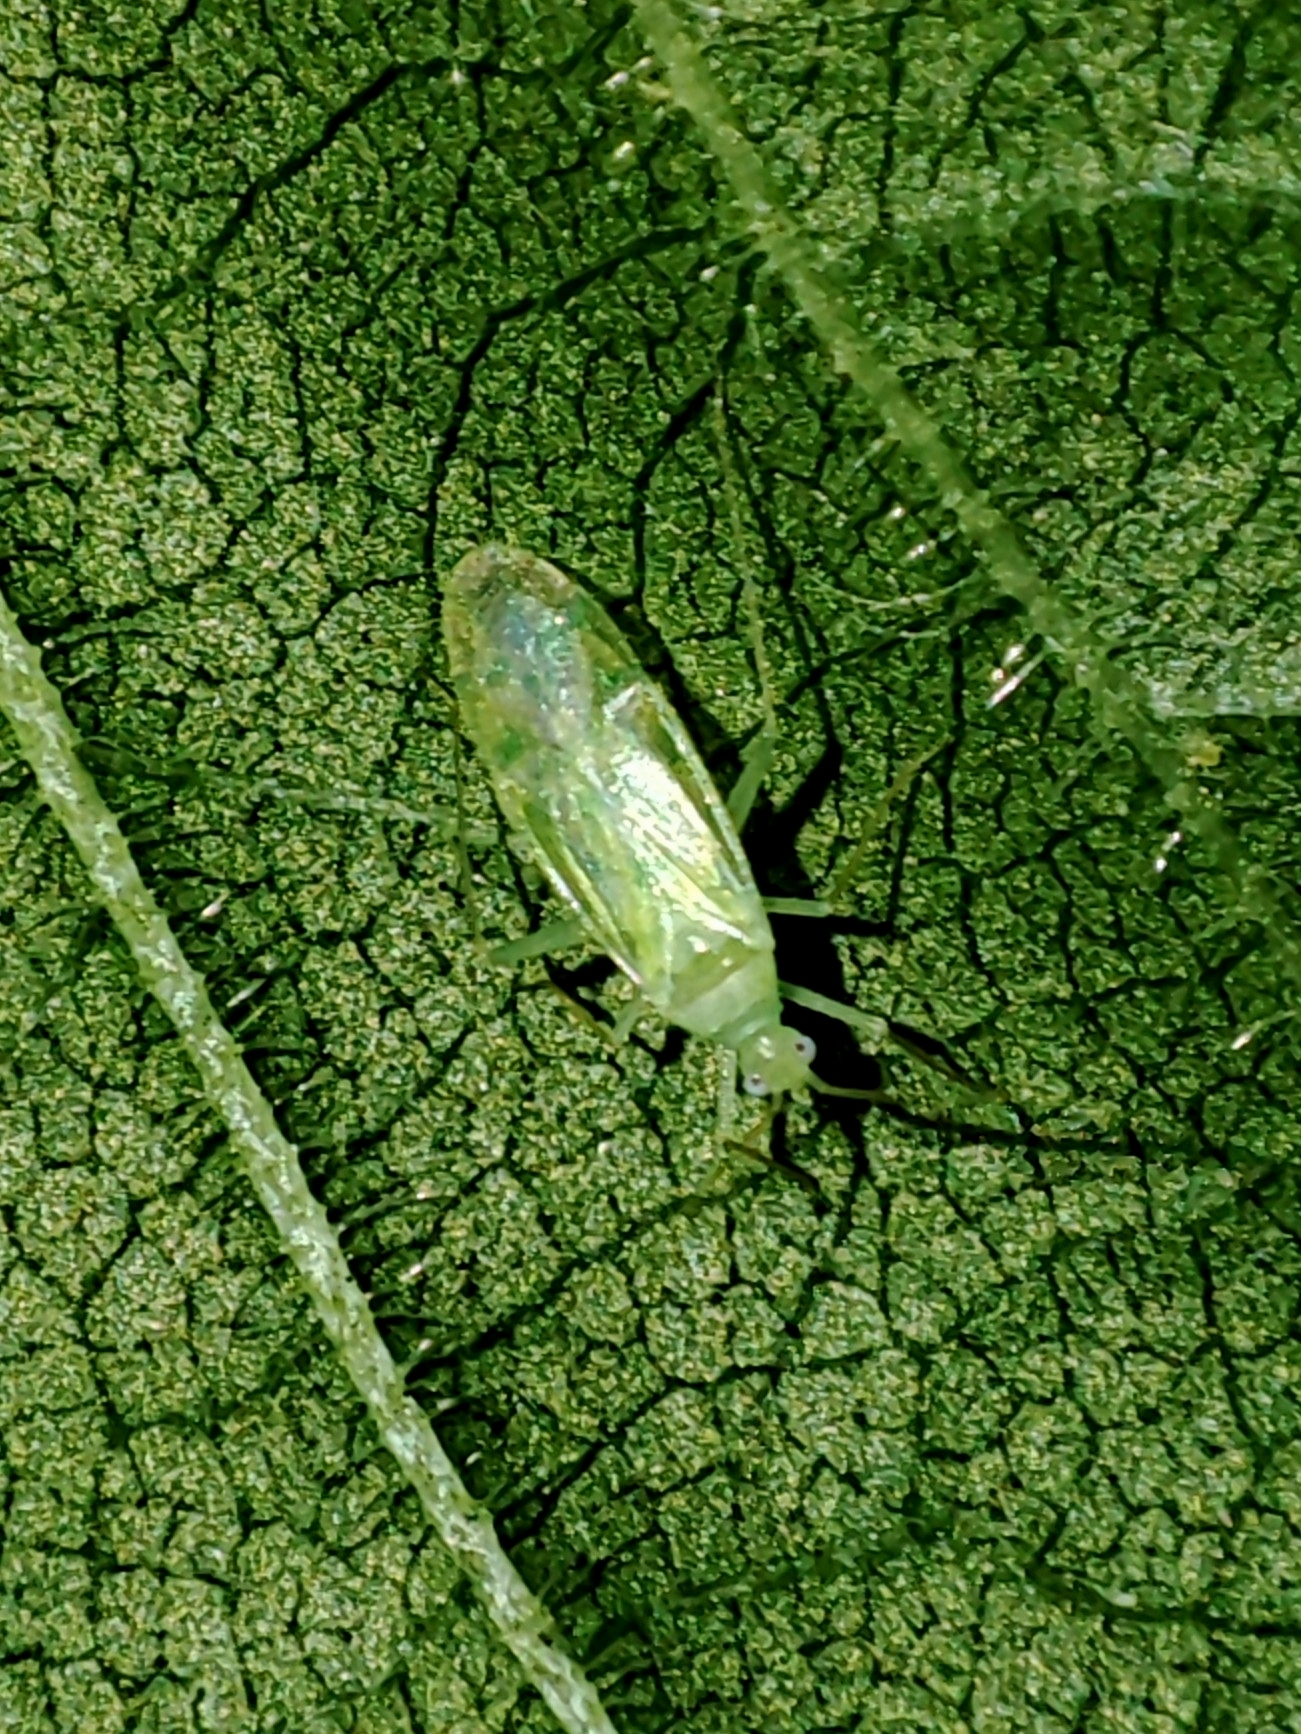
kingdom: Animalia
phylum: Arthropoda
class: Insecta
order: Hemiptera
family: Miridae
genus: Malacocoris
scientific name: Malacocoris chlorizans
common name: Plant bug
